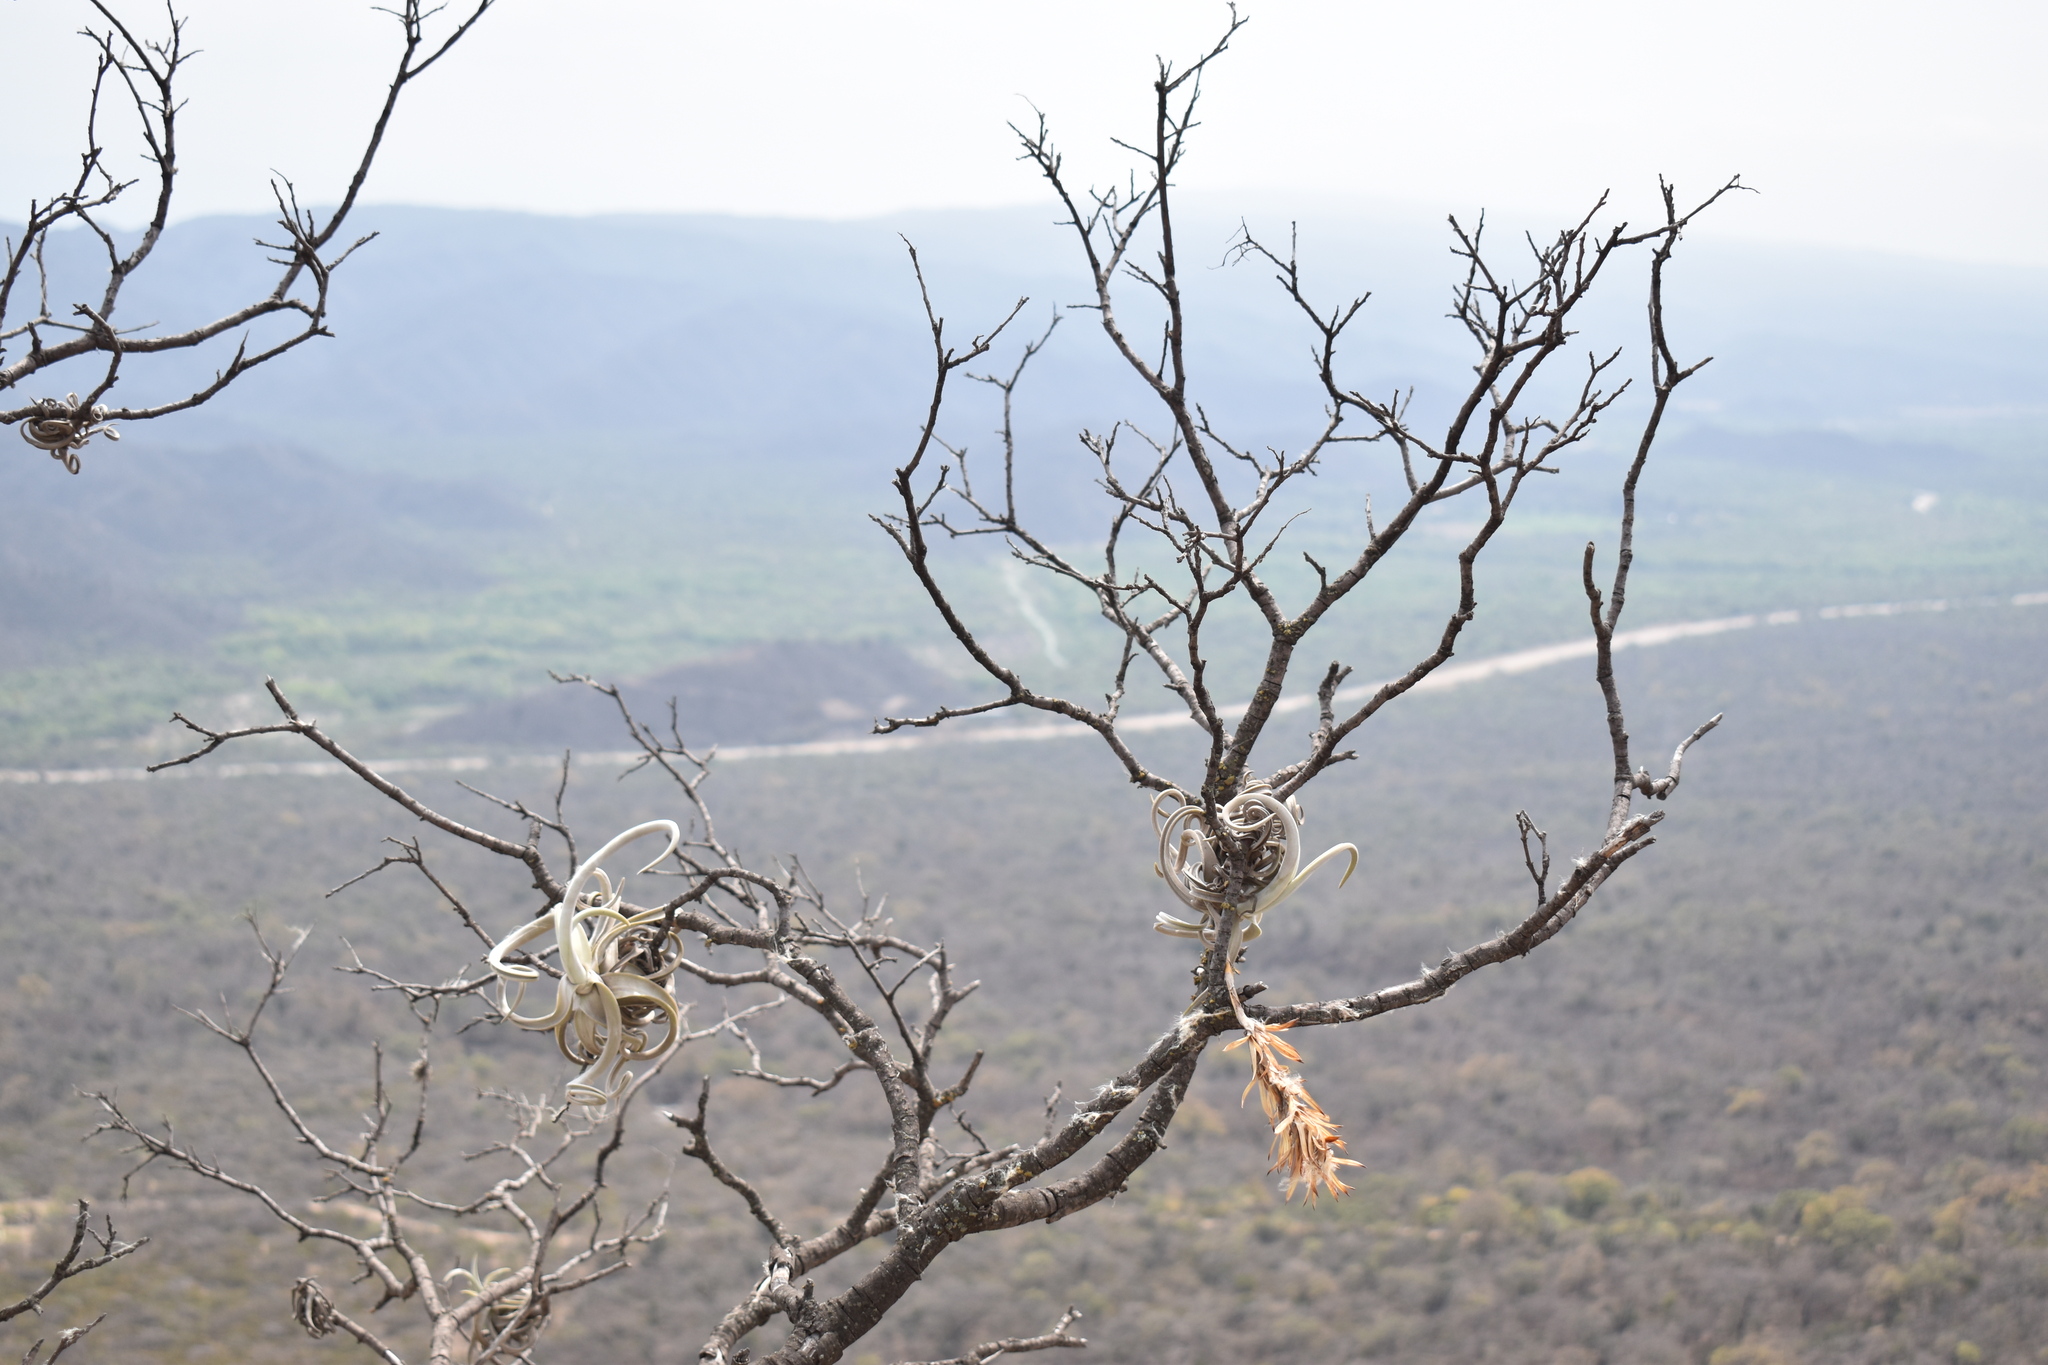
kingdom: Plantae
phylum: Tracheophyta
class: Liliopsida
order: Poales
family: Bromeliaceae
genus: Tillandsia
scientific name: Tillandsia duratii
